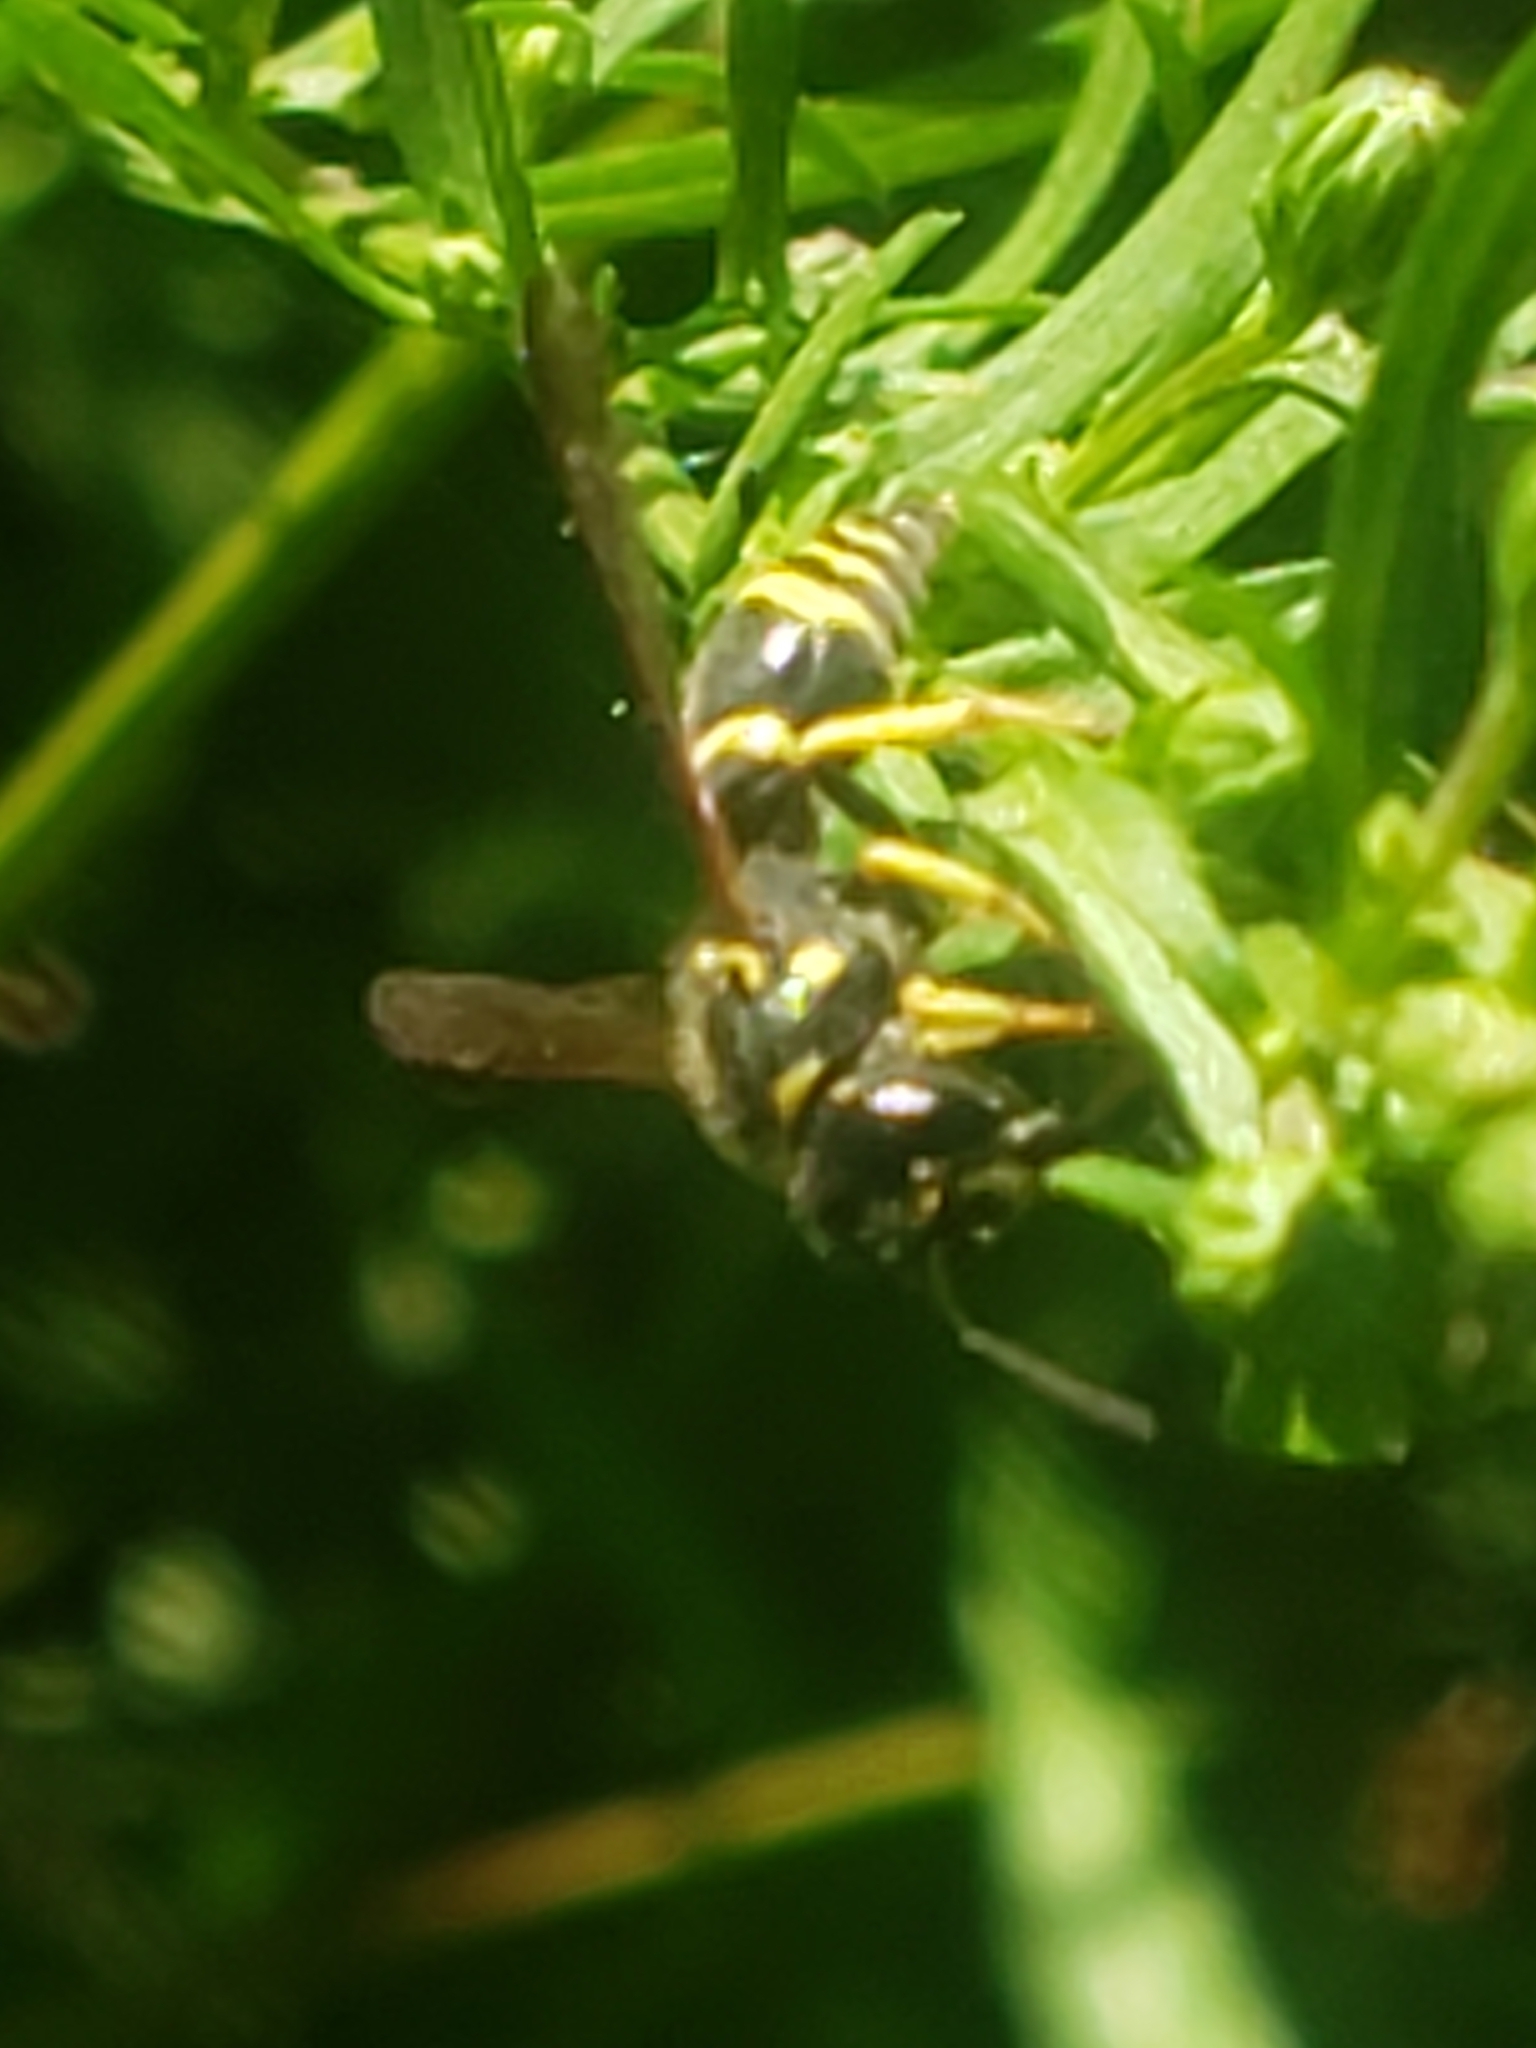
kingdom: Animalia
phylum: Arthropoda
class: Insecta
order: Hymenoptera
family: Vespidae
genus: Ancistrocerus
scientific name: Ancistrocerus adiabatus
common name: Bramble mason wasp
